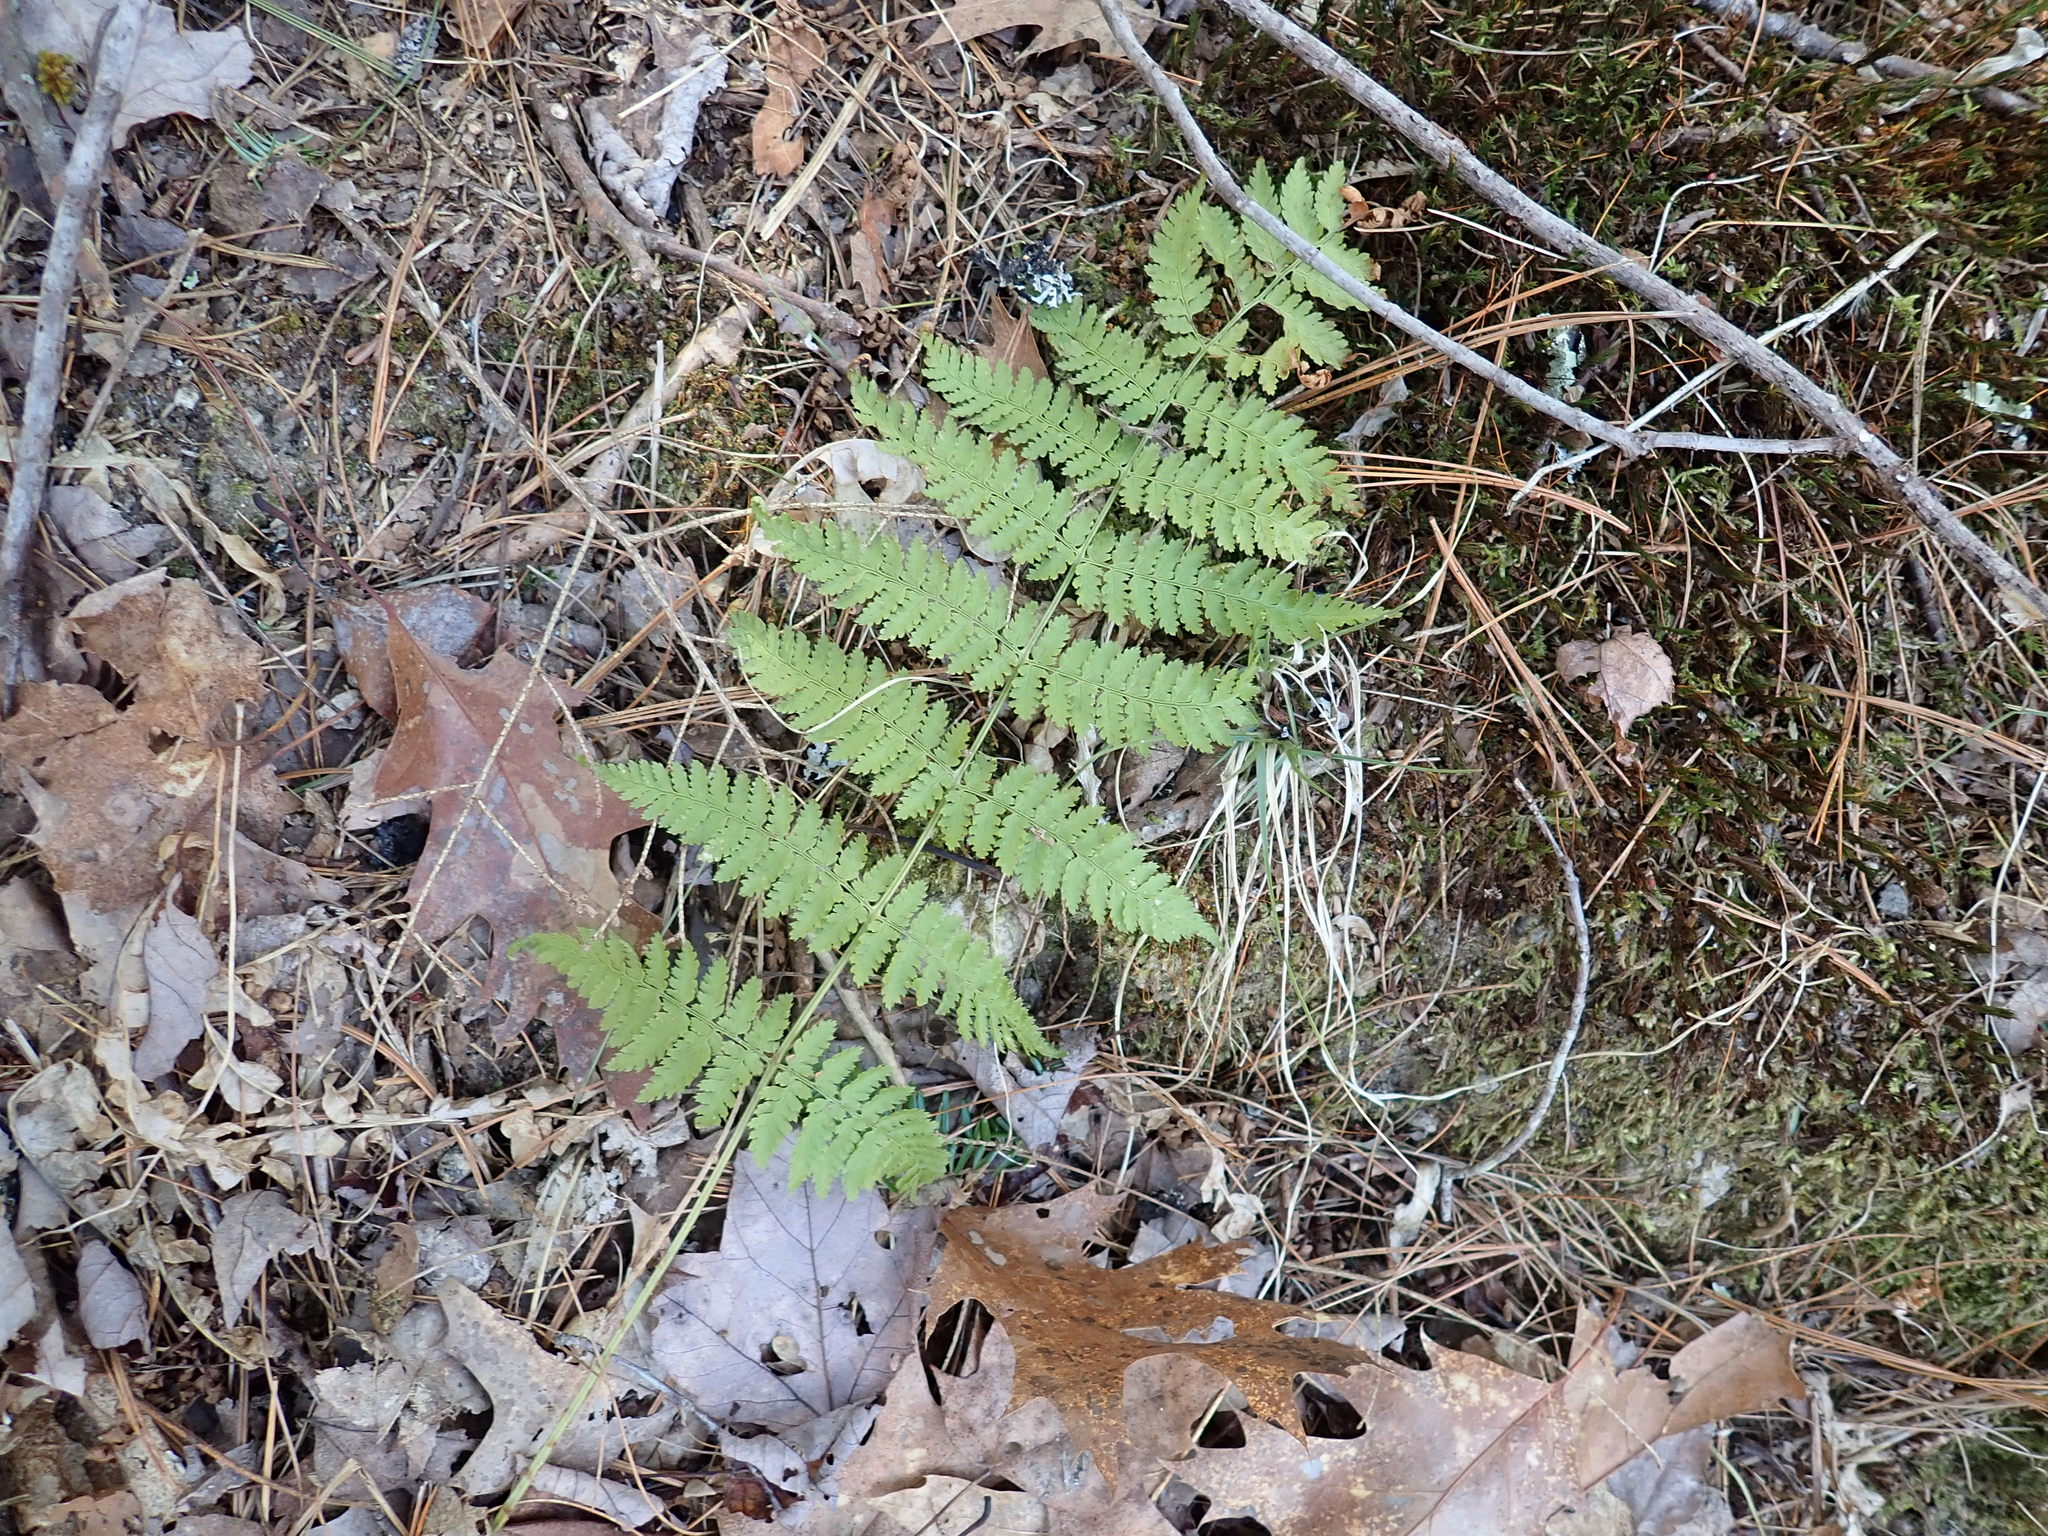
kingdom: Plantae
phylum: Tracheophyta
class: Polypodiopsida
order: Polypodiales
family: Dryopteridaceae
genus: Dryopteris
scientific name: Dryopteris intermedia
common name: Evergreen wood fern
